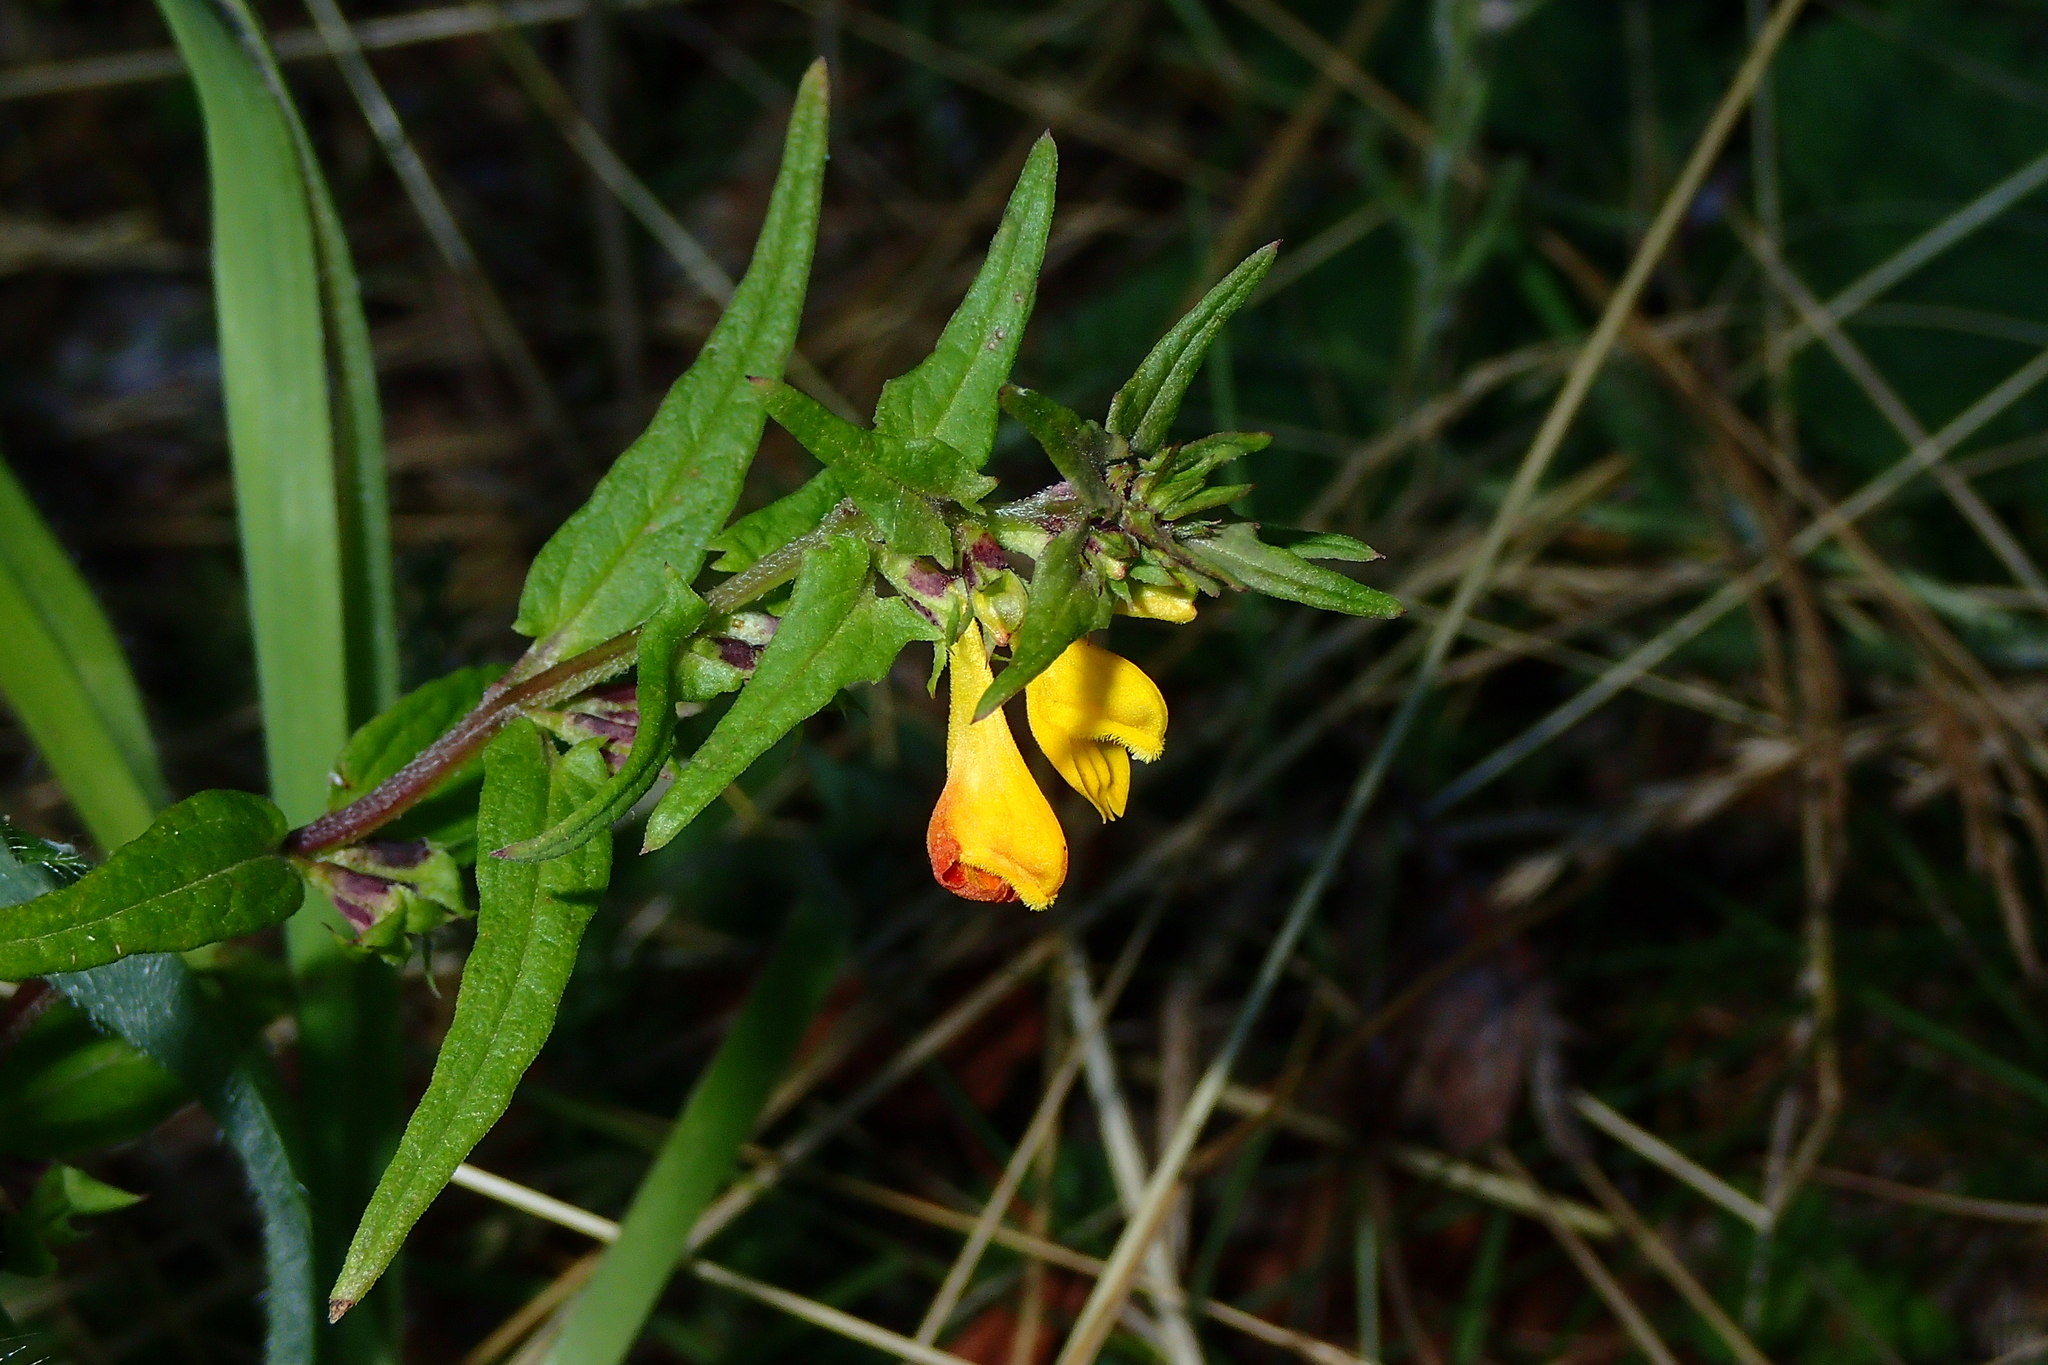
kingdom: Plantae
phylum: Tracheophyta
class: Magnoliopsida
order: Lamiales
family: Orobanchaceae
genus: Melampyrum
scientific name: Melampyrum sylvaticum
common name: Small cow-wheat
